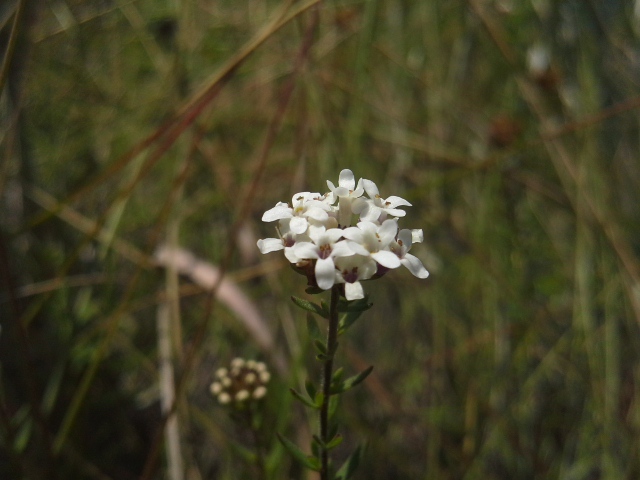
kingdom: Plantae
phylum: Tracheophyta
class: Magnoliopsida
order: Lamiales
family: Scrophulariaceae
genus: Selago
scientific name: Selago atherstonei
